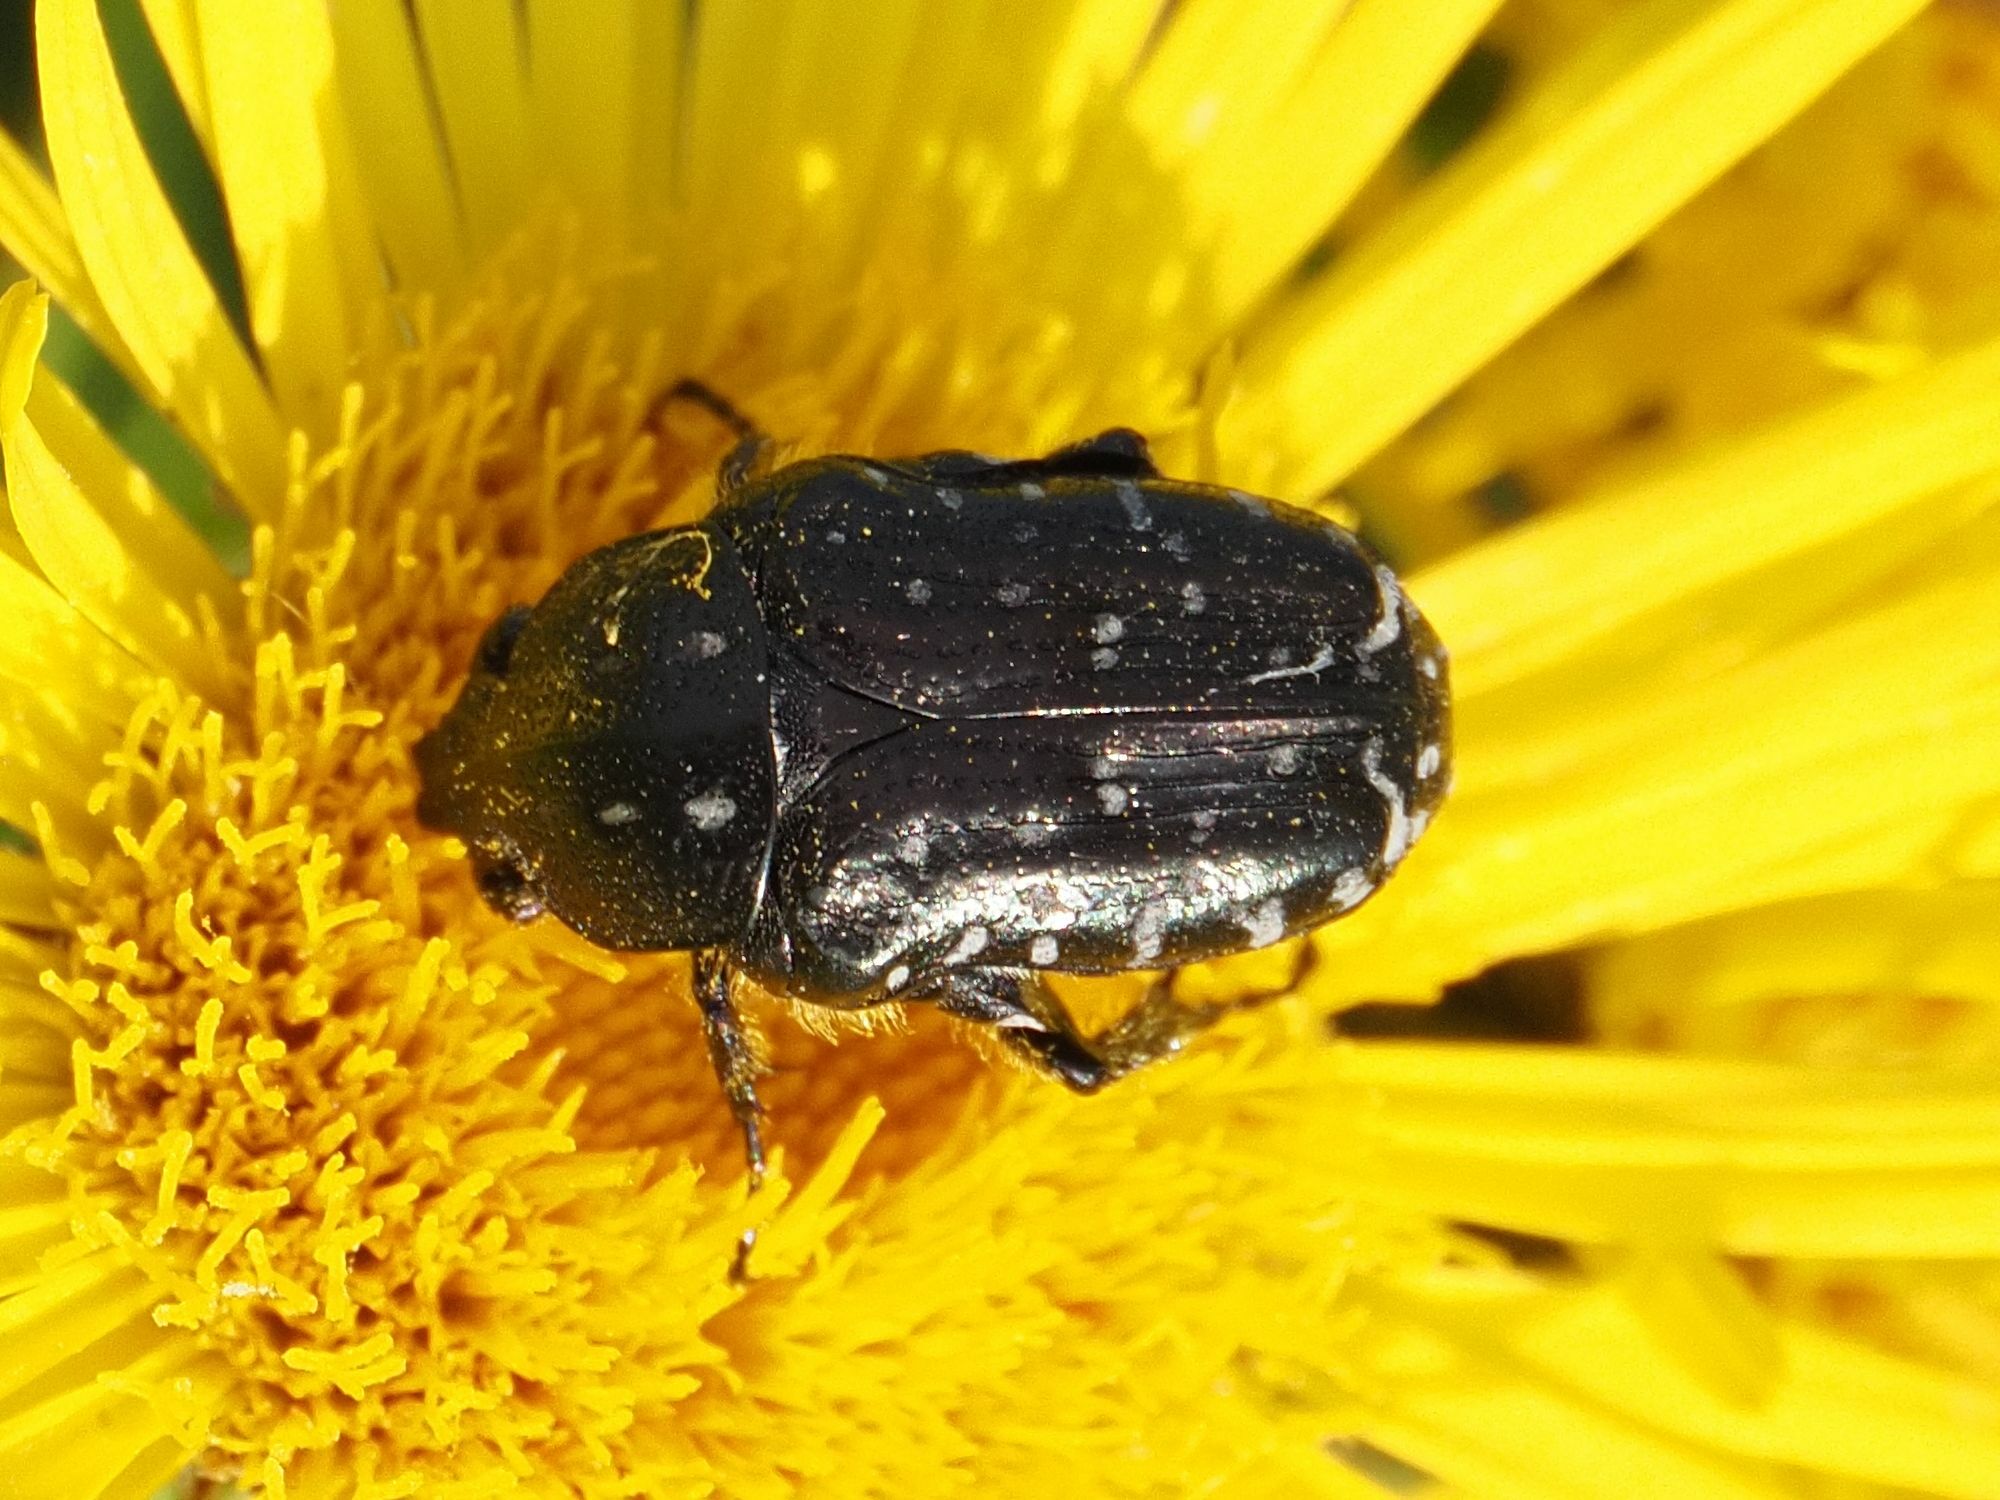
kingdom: Animalia
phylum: Arthropoda
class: Insecta
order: Coleoptera
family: Scarabaeidae
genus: Oxythyrea
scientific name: Oxythyrea funesta
